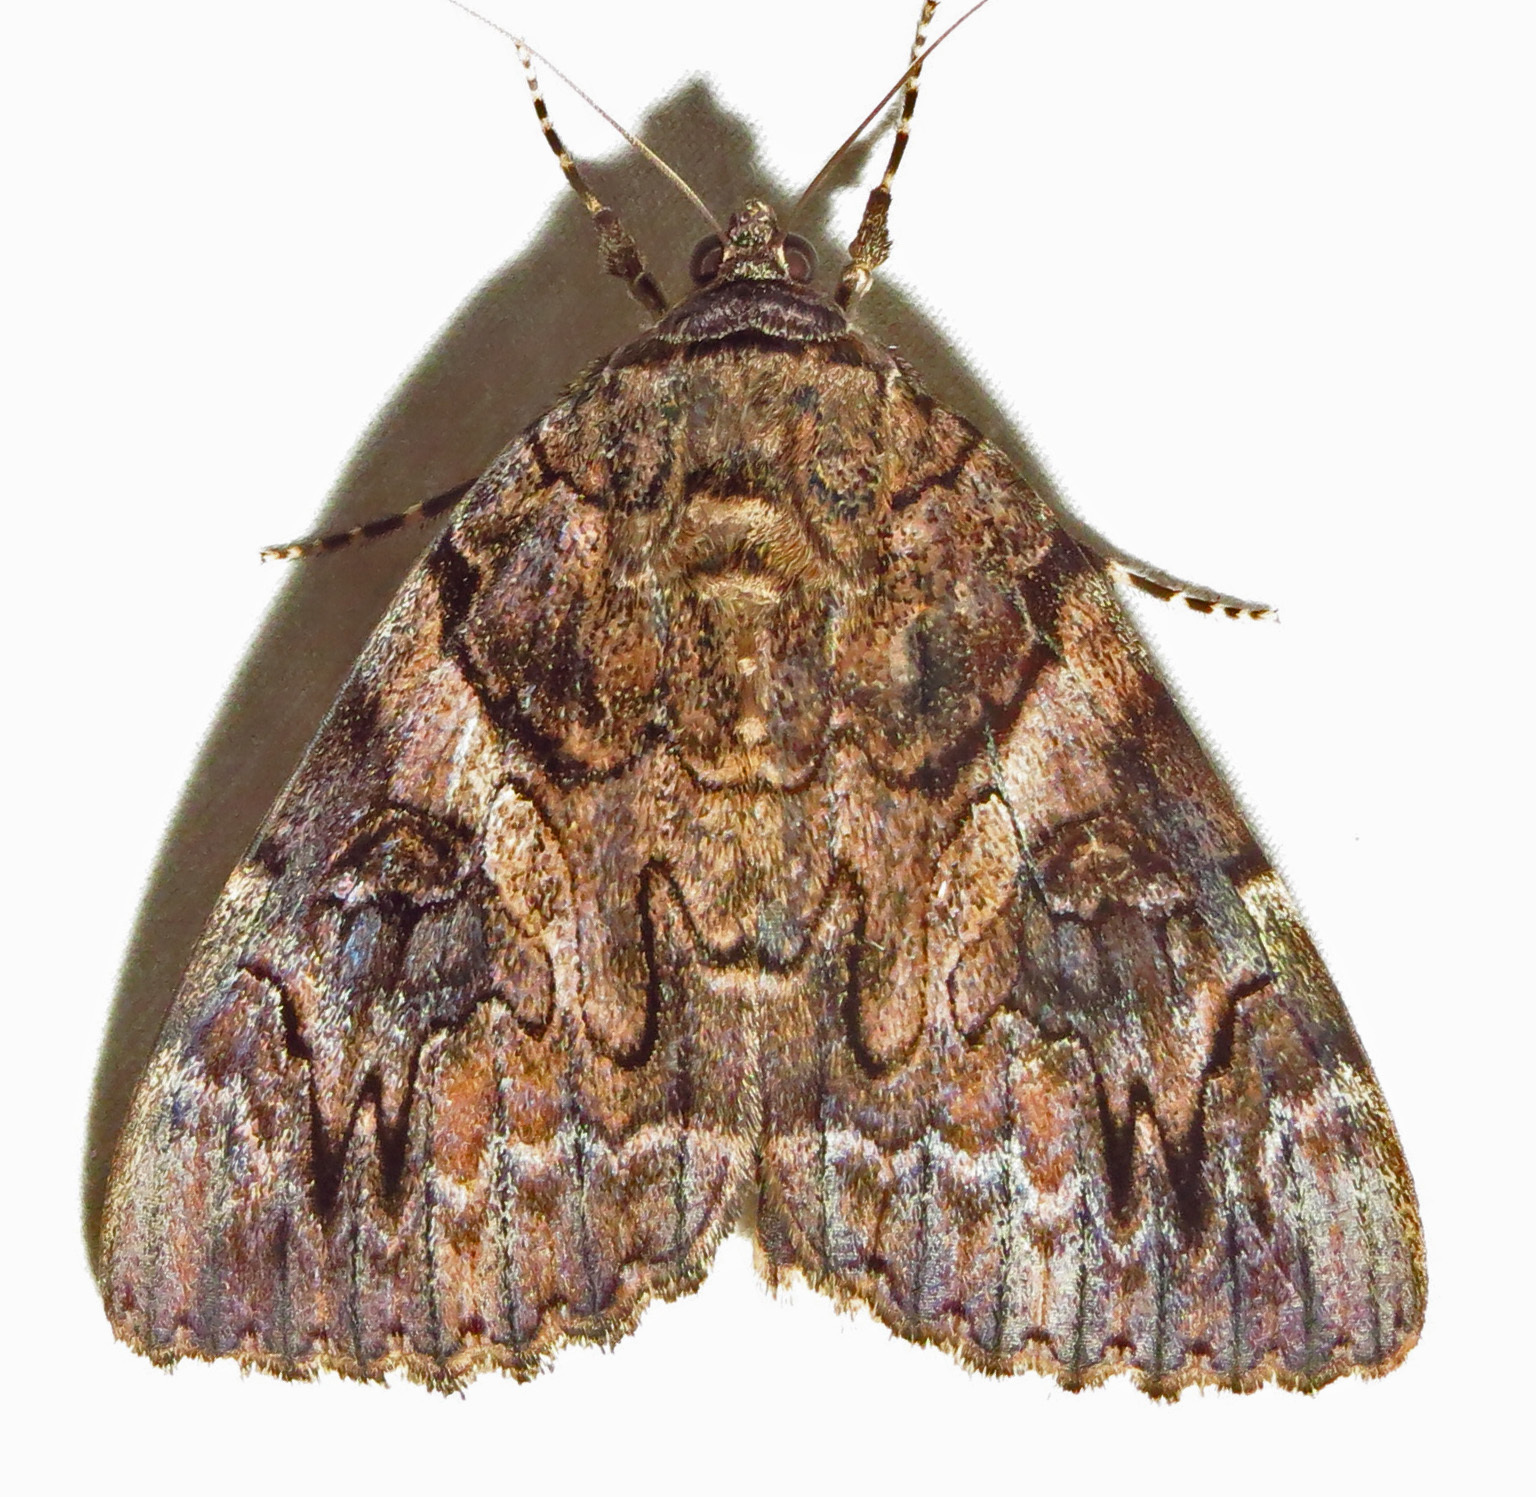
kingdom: Animalia
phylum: Arthropoda
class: Insecta
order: Lepidoptera
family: Erebidae
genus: Catocala
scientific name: Catocala piatrix
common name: The penitent underwing
